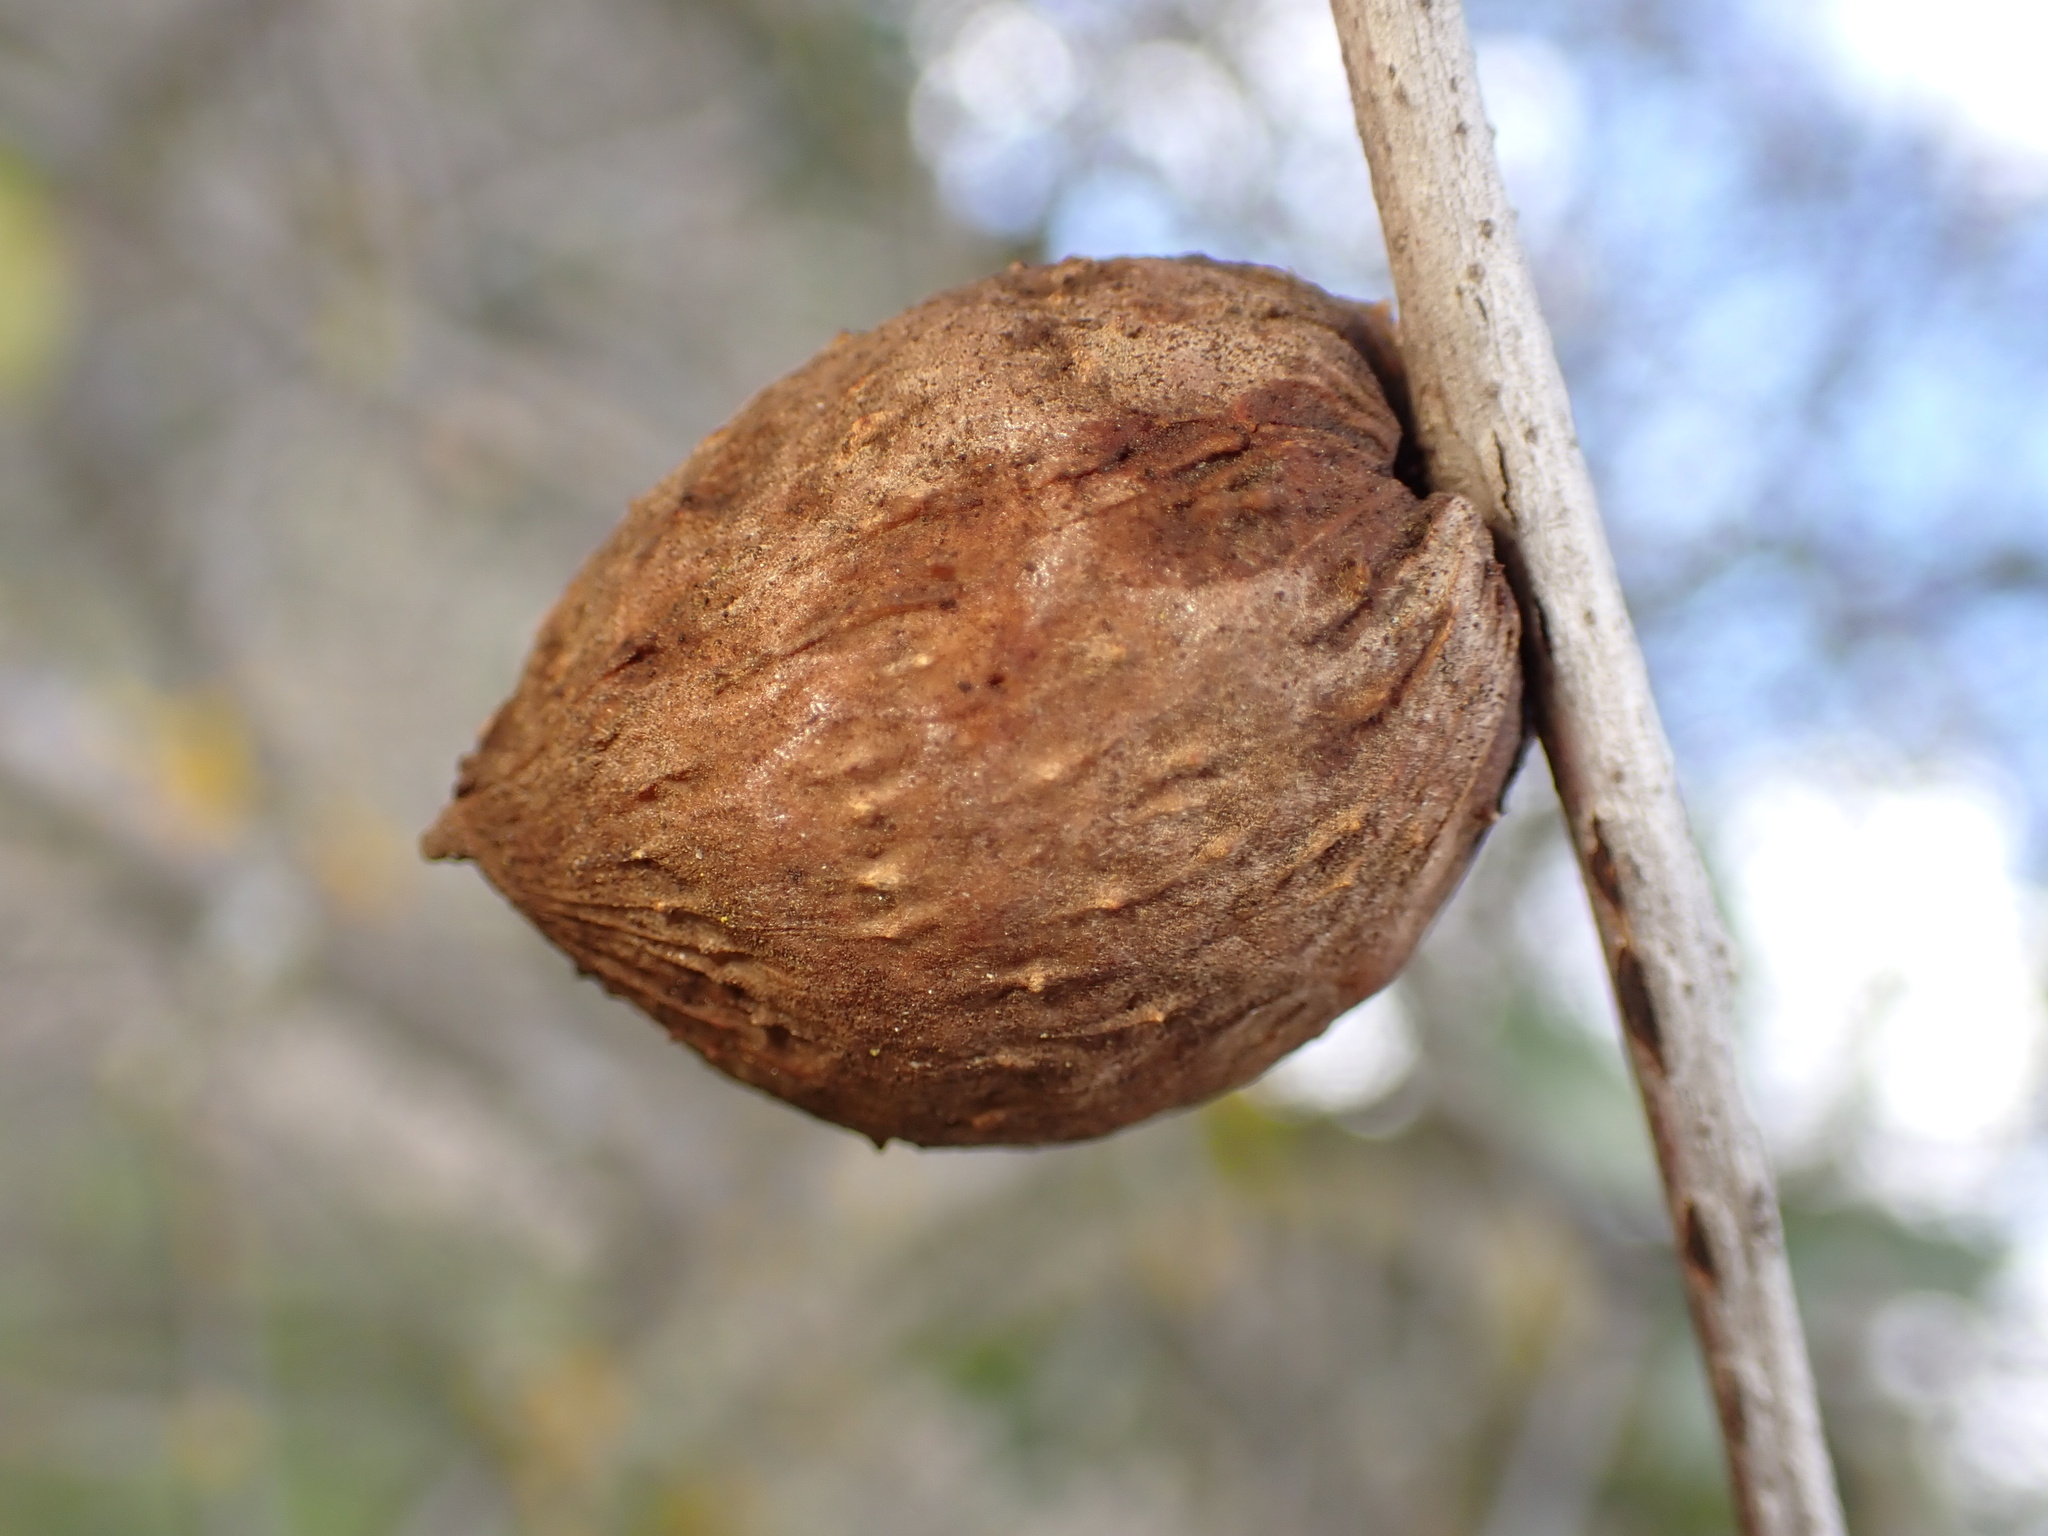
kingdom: Animalia
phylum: Arthropoda
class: Insecta
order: Hymenoptera
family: Cynipidae
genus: Amphibolips
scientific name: Amphibolips quercuspomiformis
